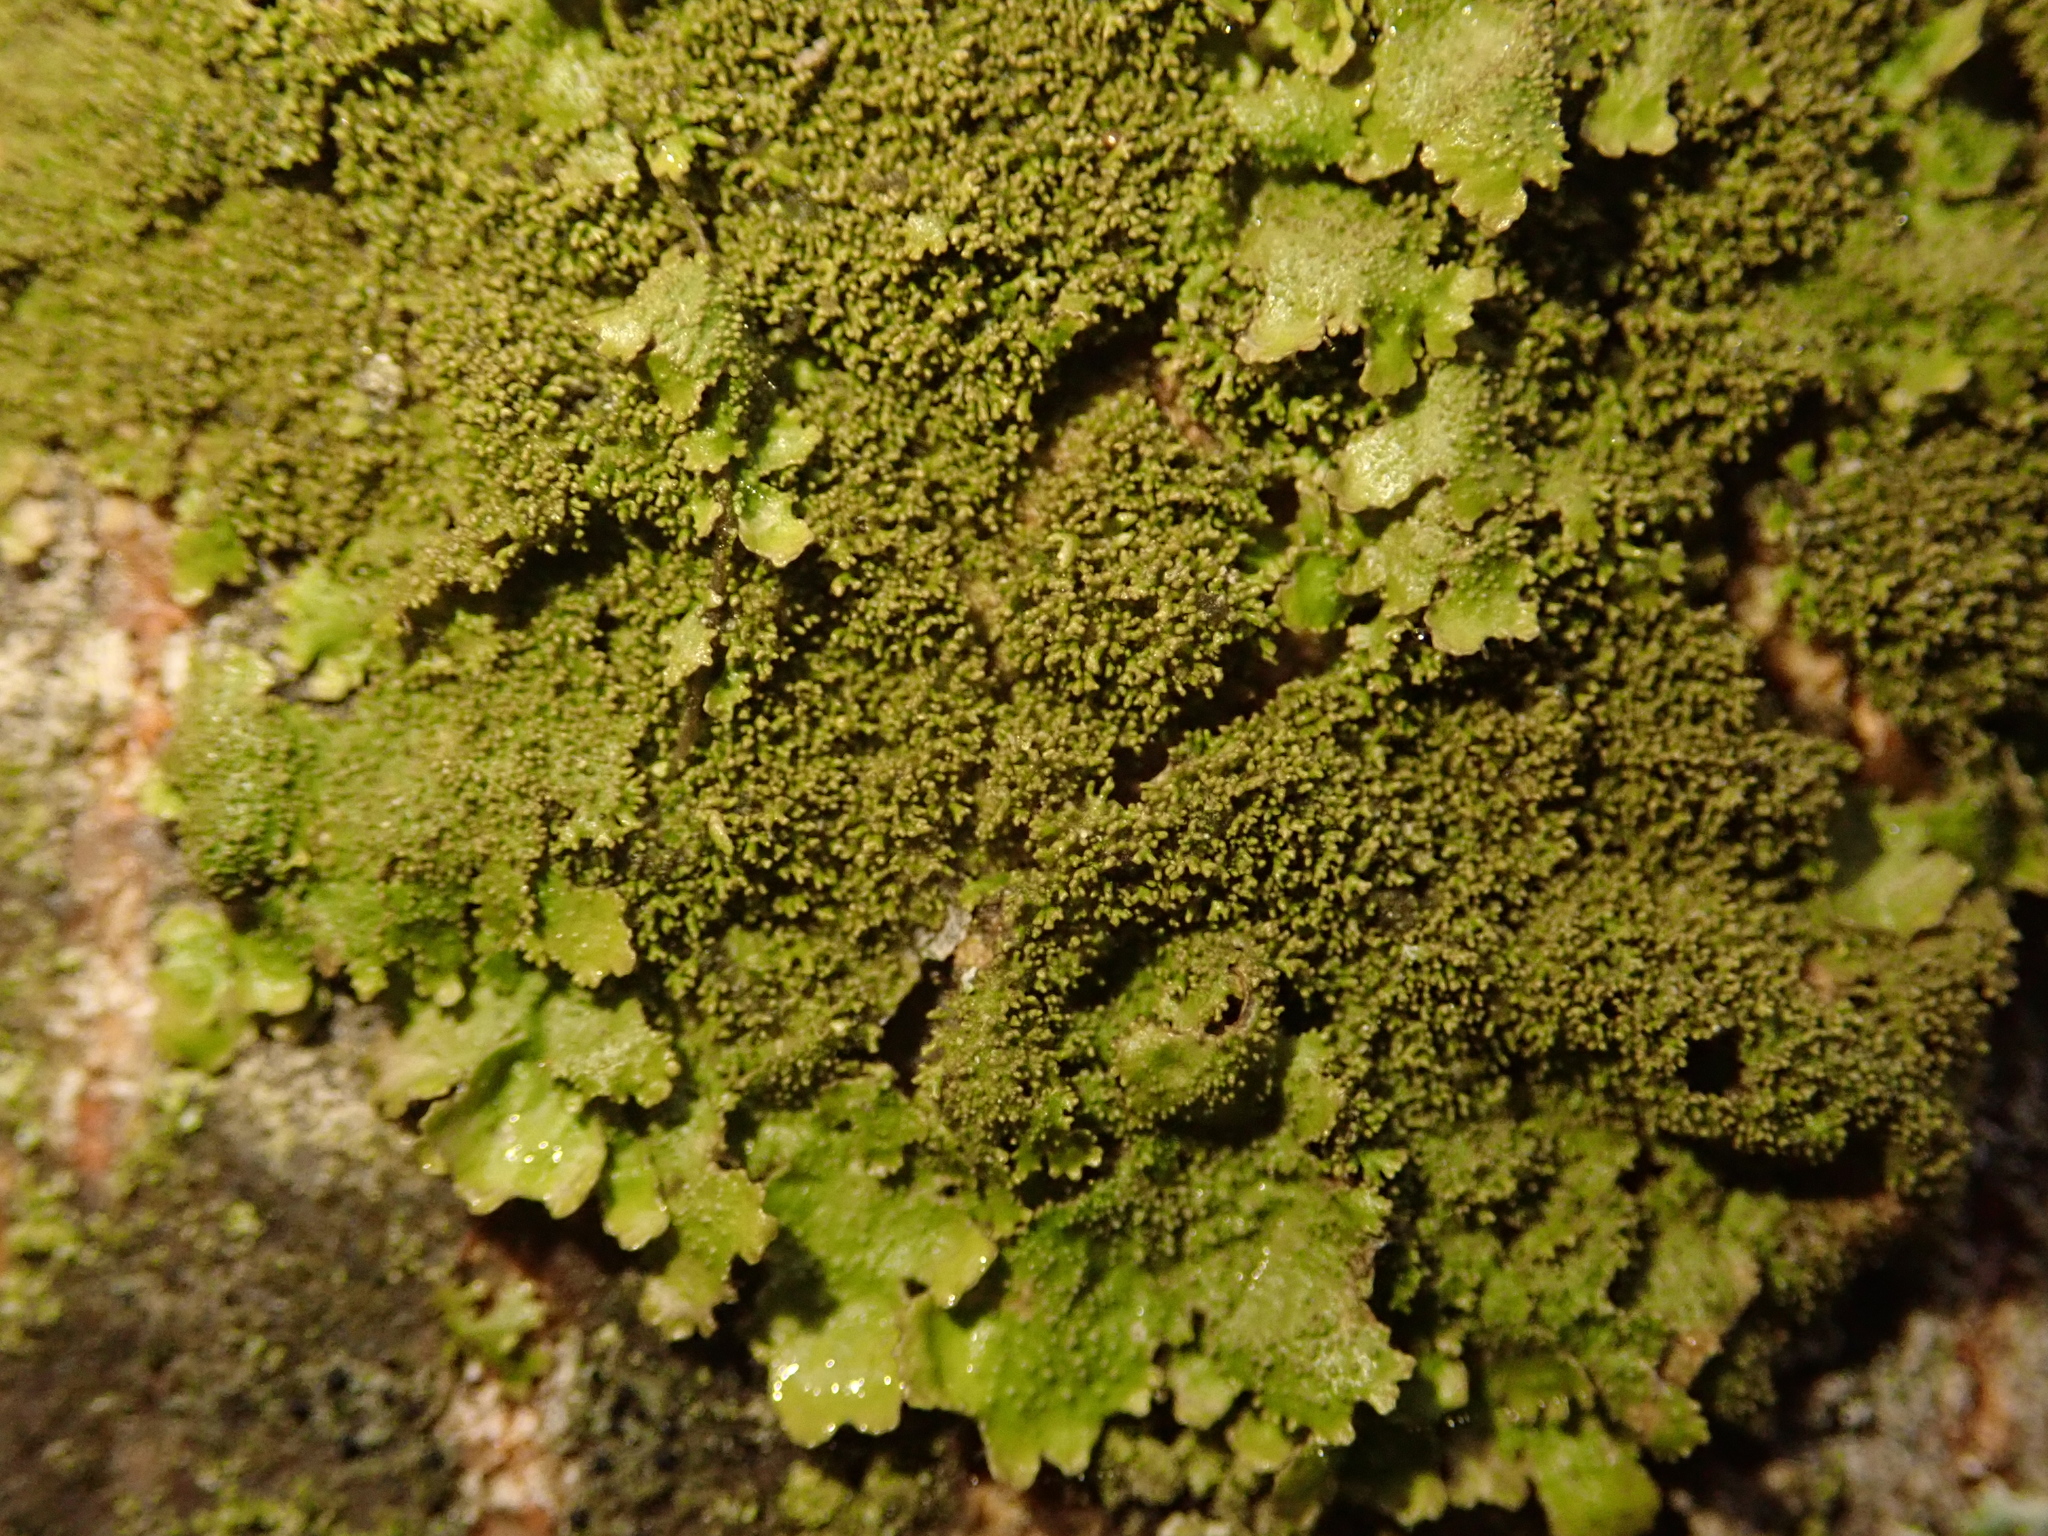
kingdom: Fungi
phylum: Ascomycota
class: Lecanoromycetes
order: Lecanorales
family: Parmeliaceae
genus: Melanohalea
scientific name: Melanohalea exasperatula
